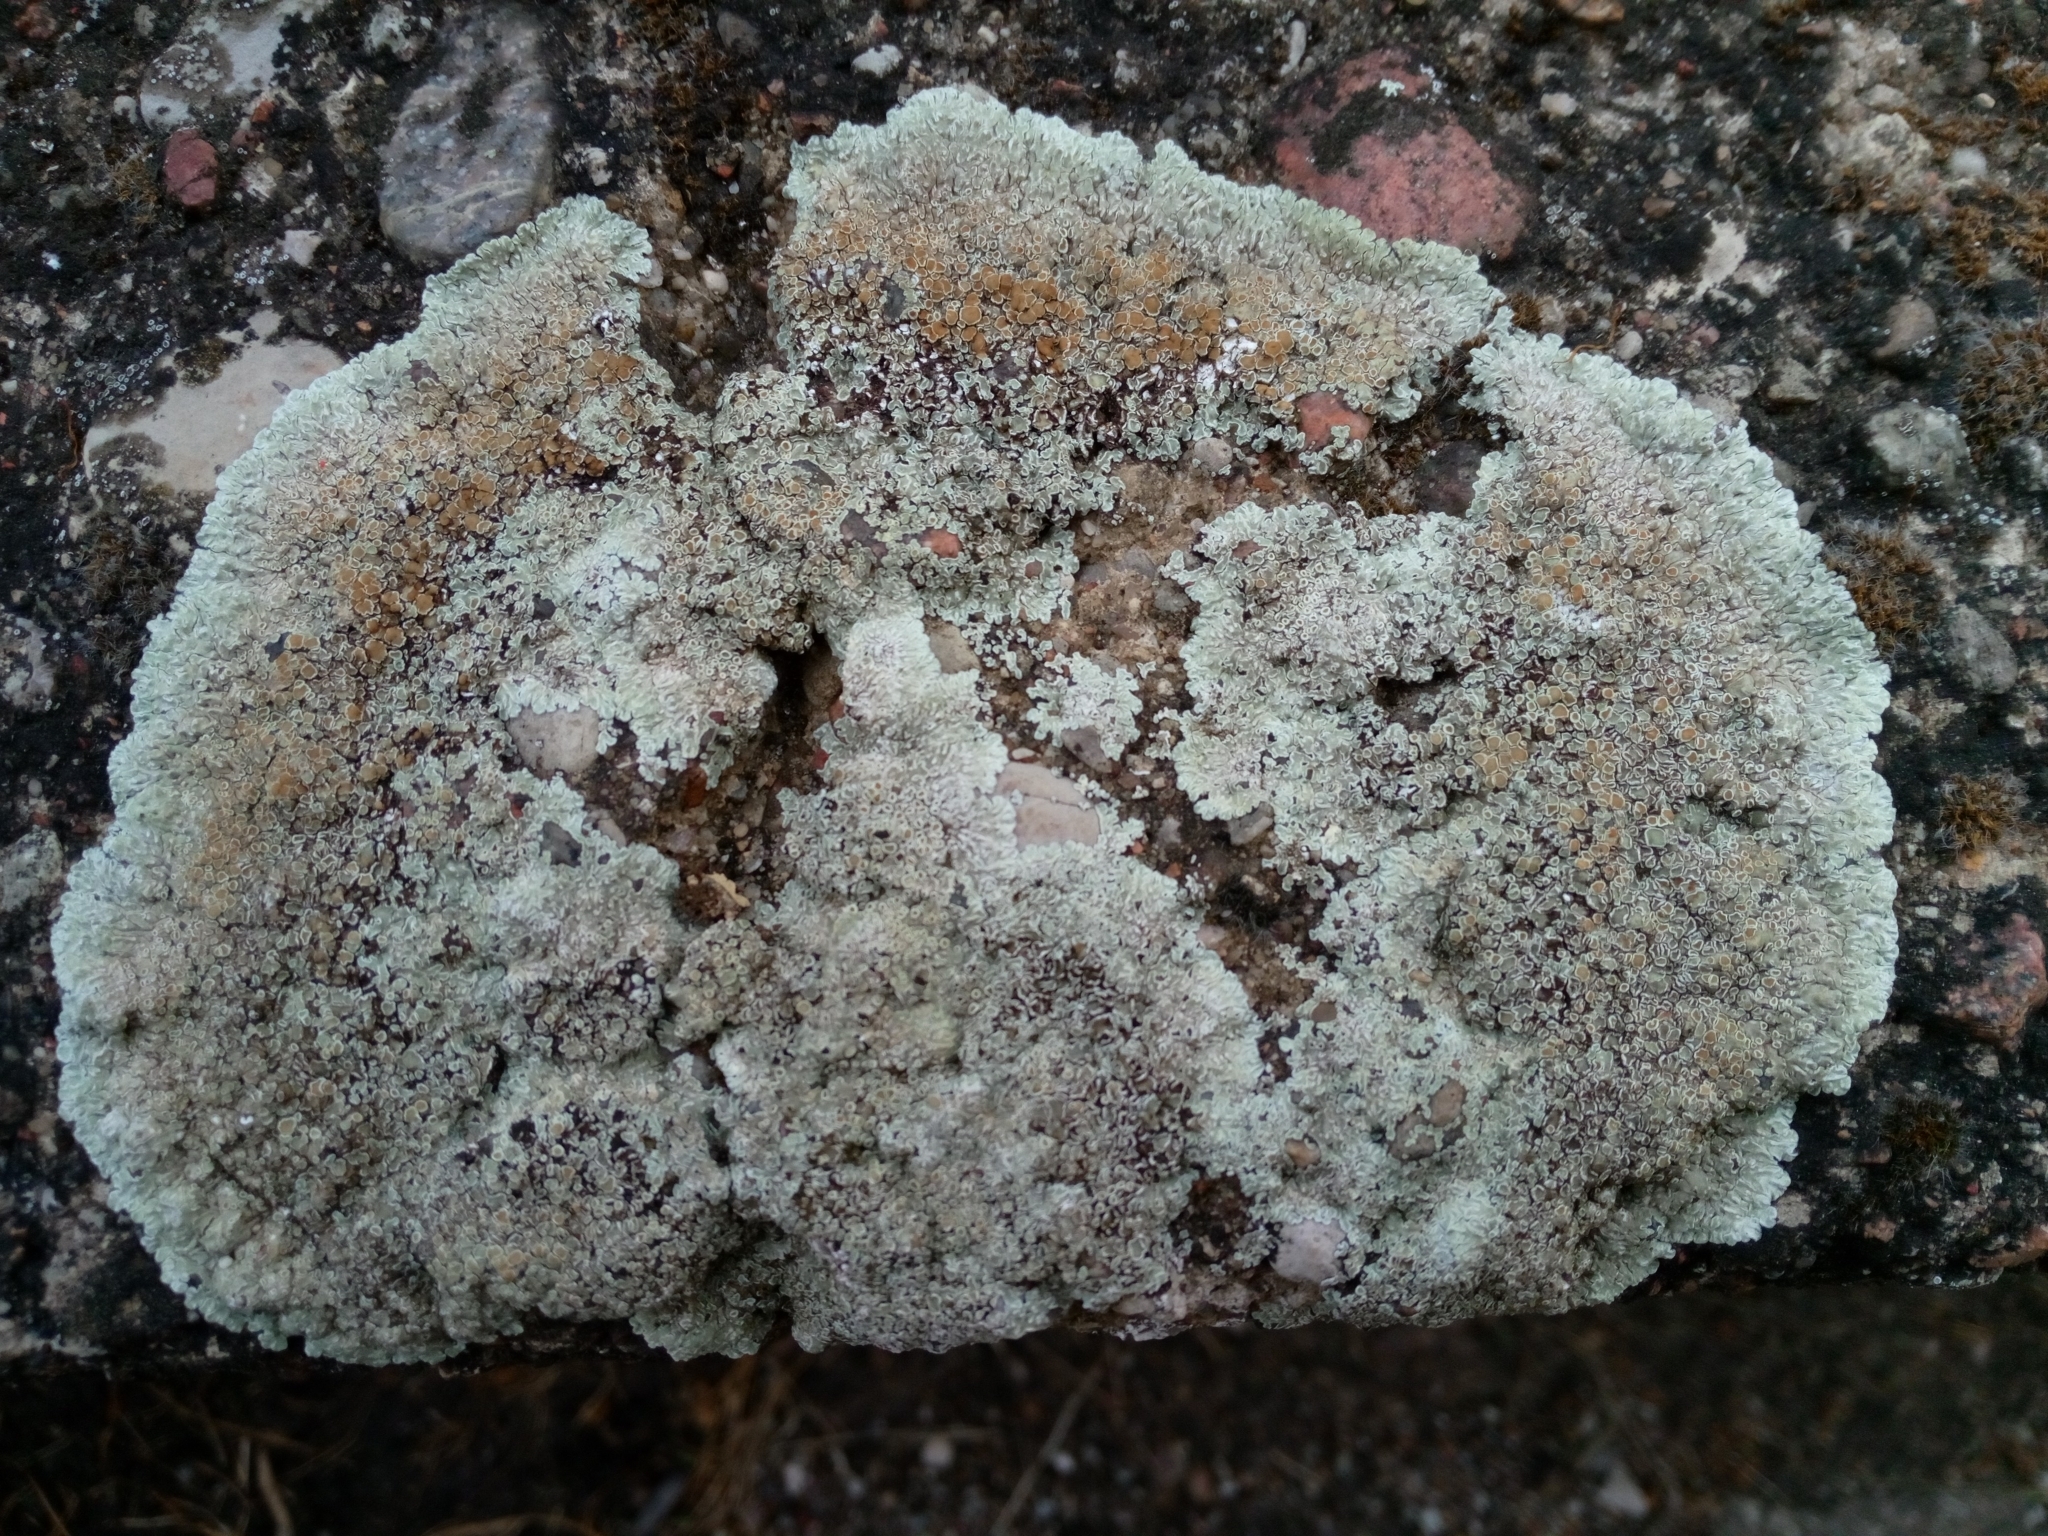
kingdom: Fungi
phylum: Ascomycota
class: Lecanoromycetes
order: Lecanorales
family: Lecanoraceae
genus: Protoparmeliopsis
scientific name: Protoparmeliopsis muralis
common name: Stonewall rim lichen
